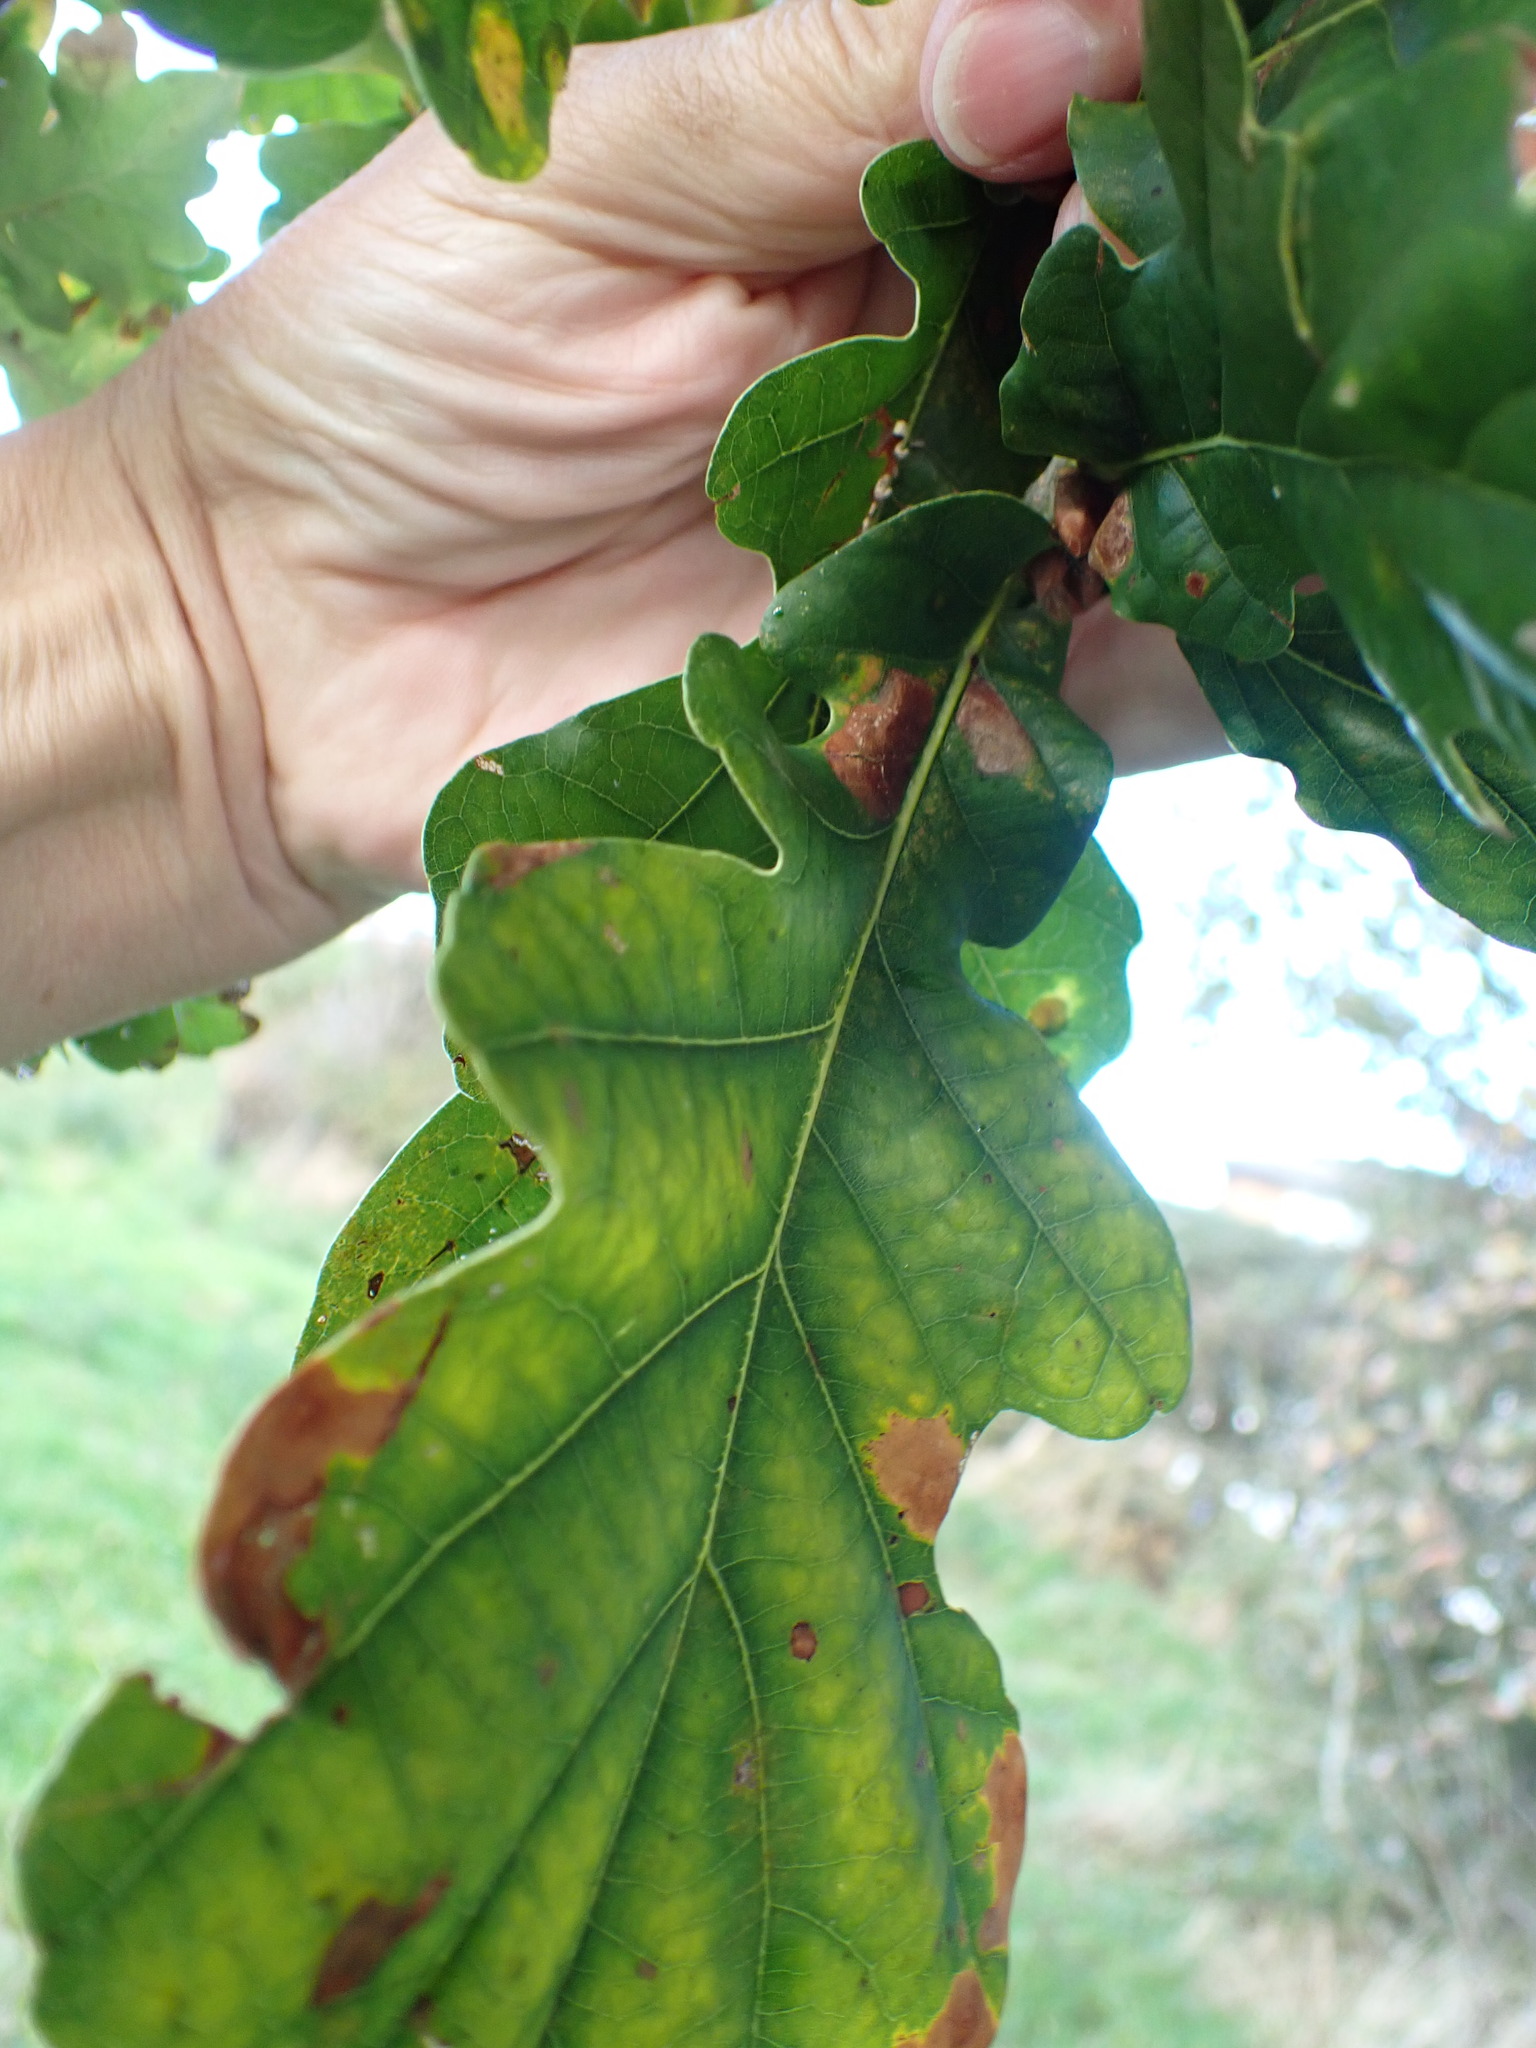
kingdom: Plantae
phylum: Tracheophyta
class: Magnoliopsida
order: Fagales
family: Fagaceae
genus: Quercus
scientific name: Quercus robur
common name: Pedunculate oak
